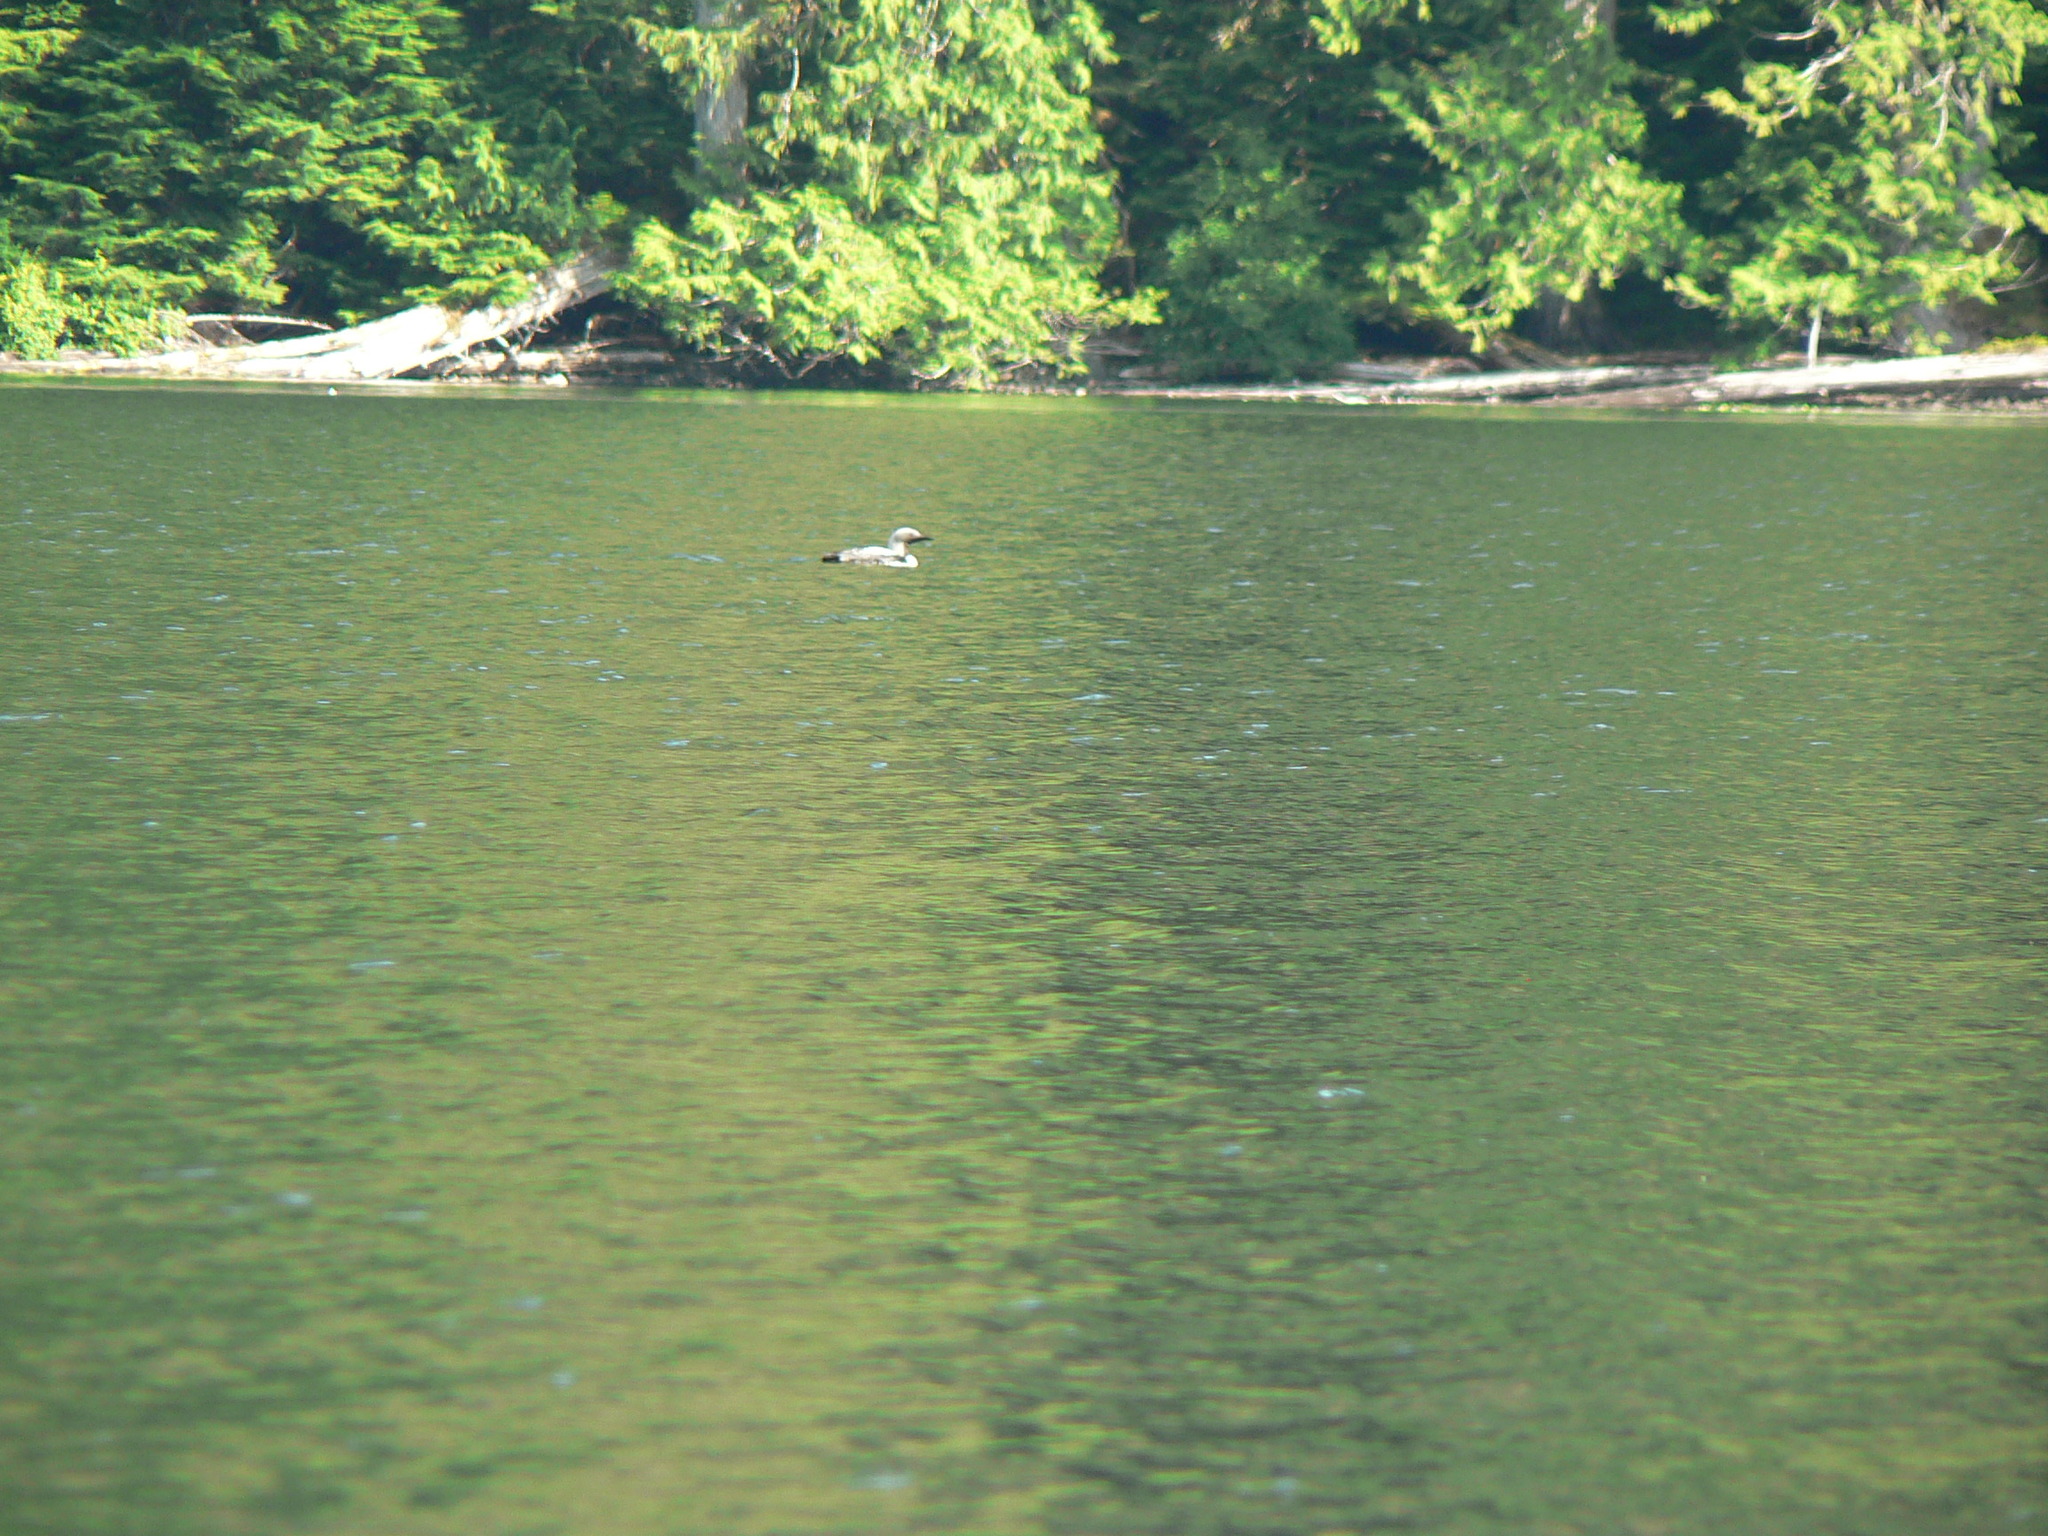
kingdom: Animalia
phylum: Chordata
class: Aves
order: Gaviiformes
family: Gaviidae
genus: Gavia
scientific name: Gavia pacifica
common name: Pacific loon
